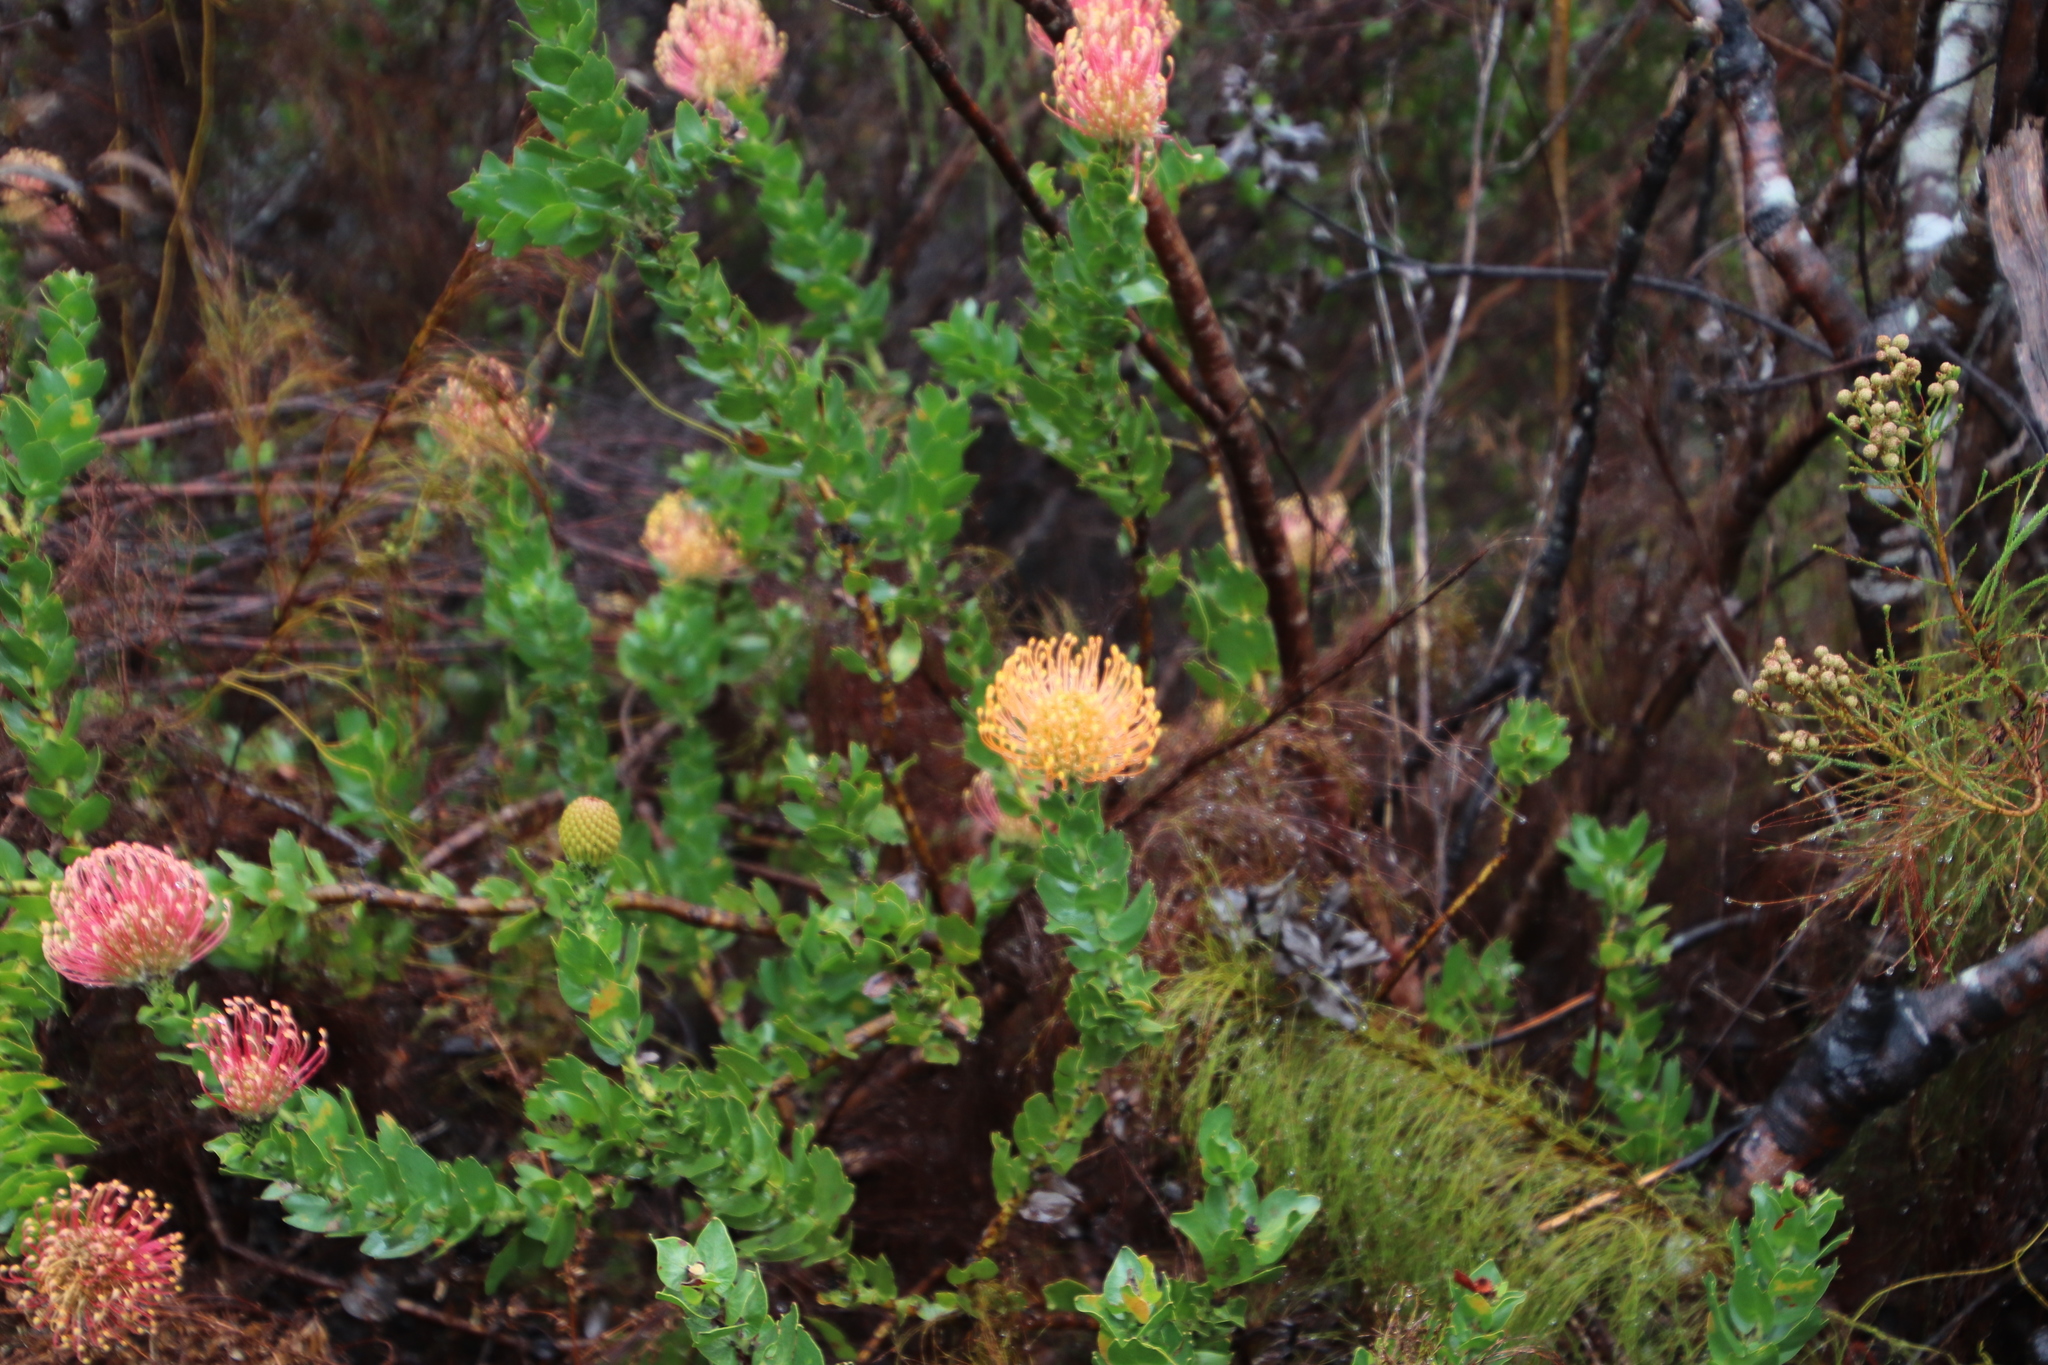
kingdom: Plantae
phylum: Tracheophyta
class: Magnoliopsida
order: Proteales
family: Proteaceae
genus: Leucospermum
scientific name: Leucospermum patersonii
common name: False tree pincushion
